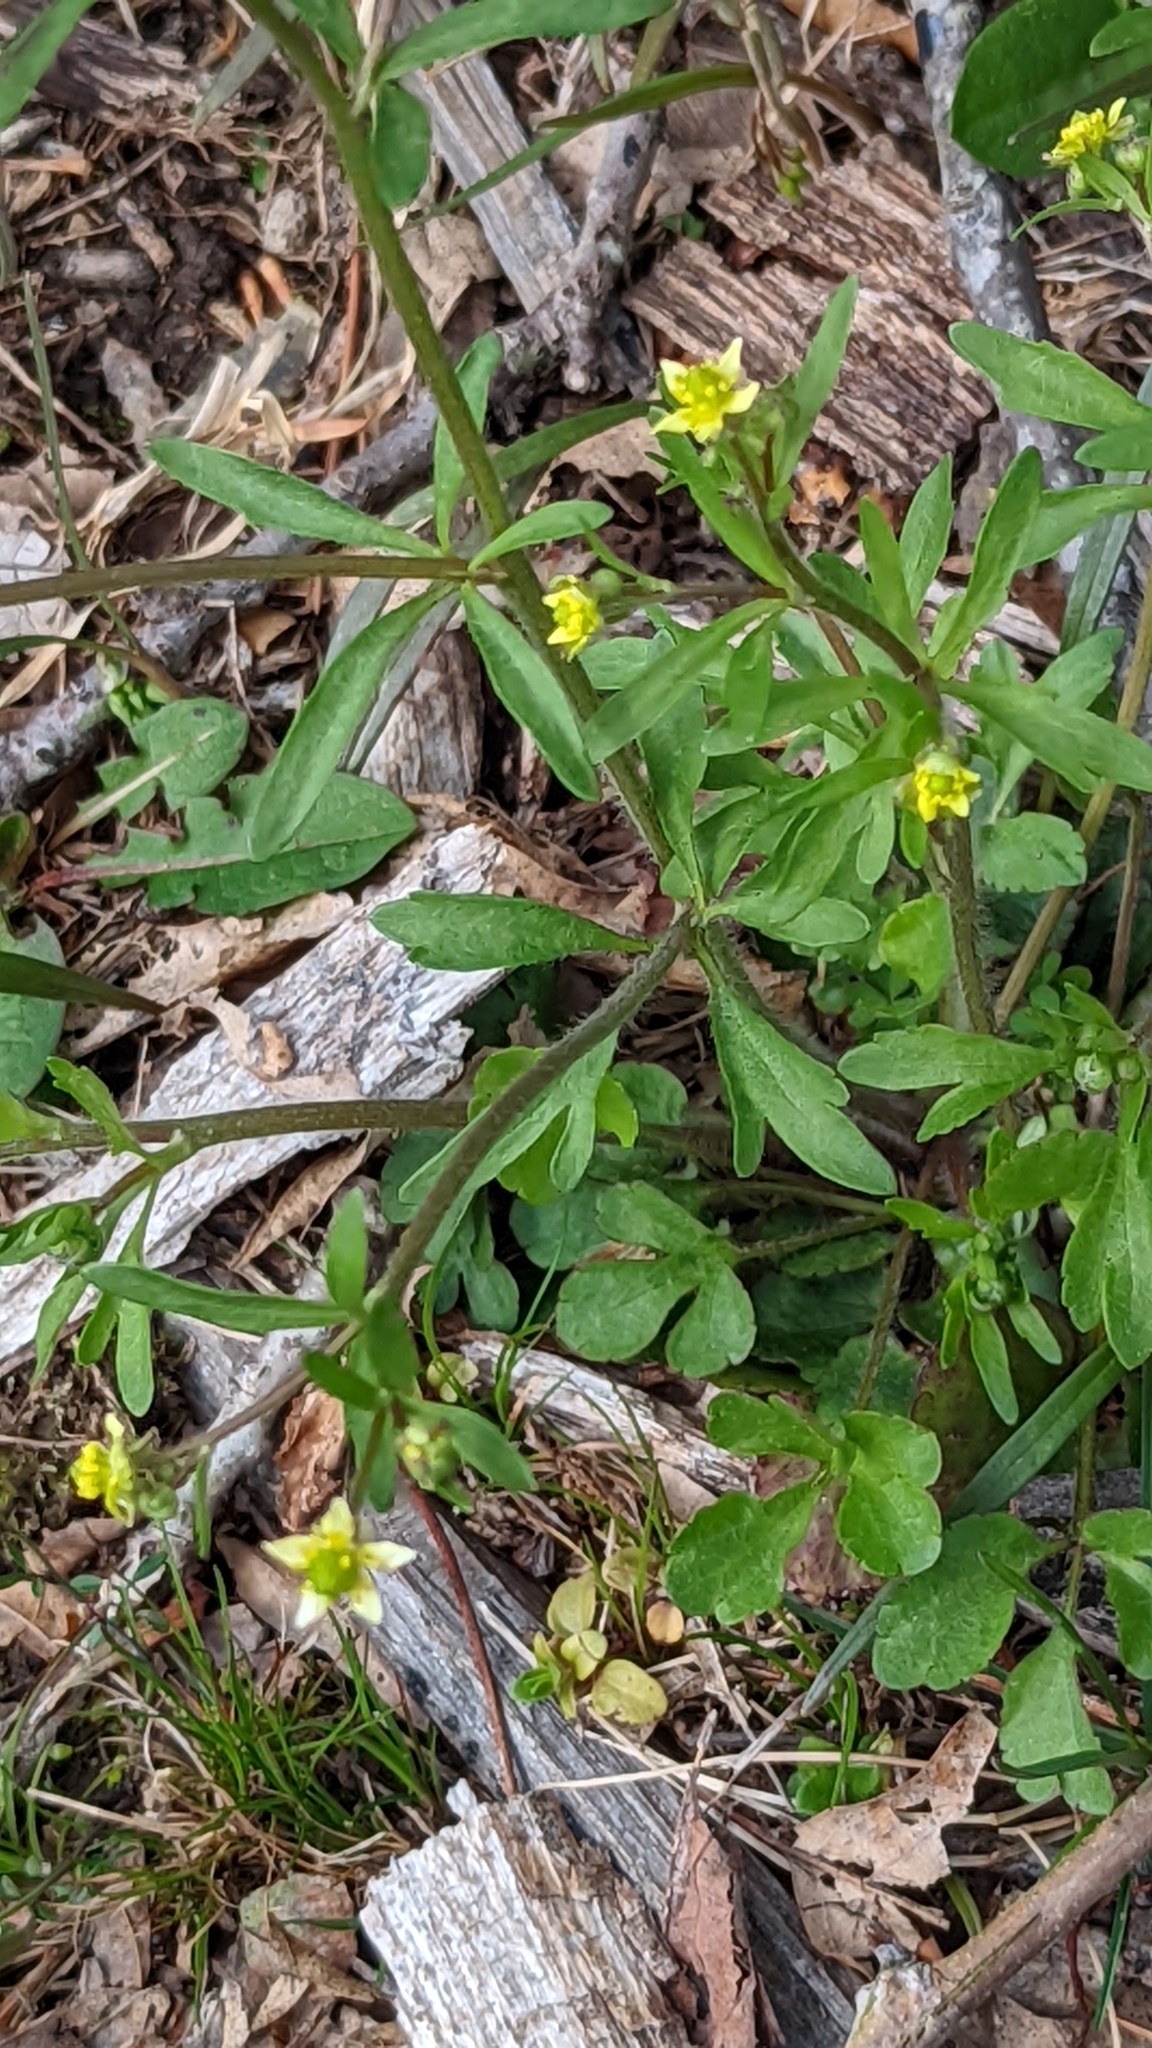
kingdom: Plantae
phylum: Tracheophyta
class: Magnoliopsida
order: Ranunculales
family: Ranunculaceae
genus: Ranunculus
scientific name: Ranunculus micranthus
